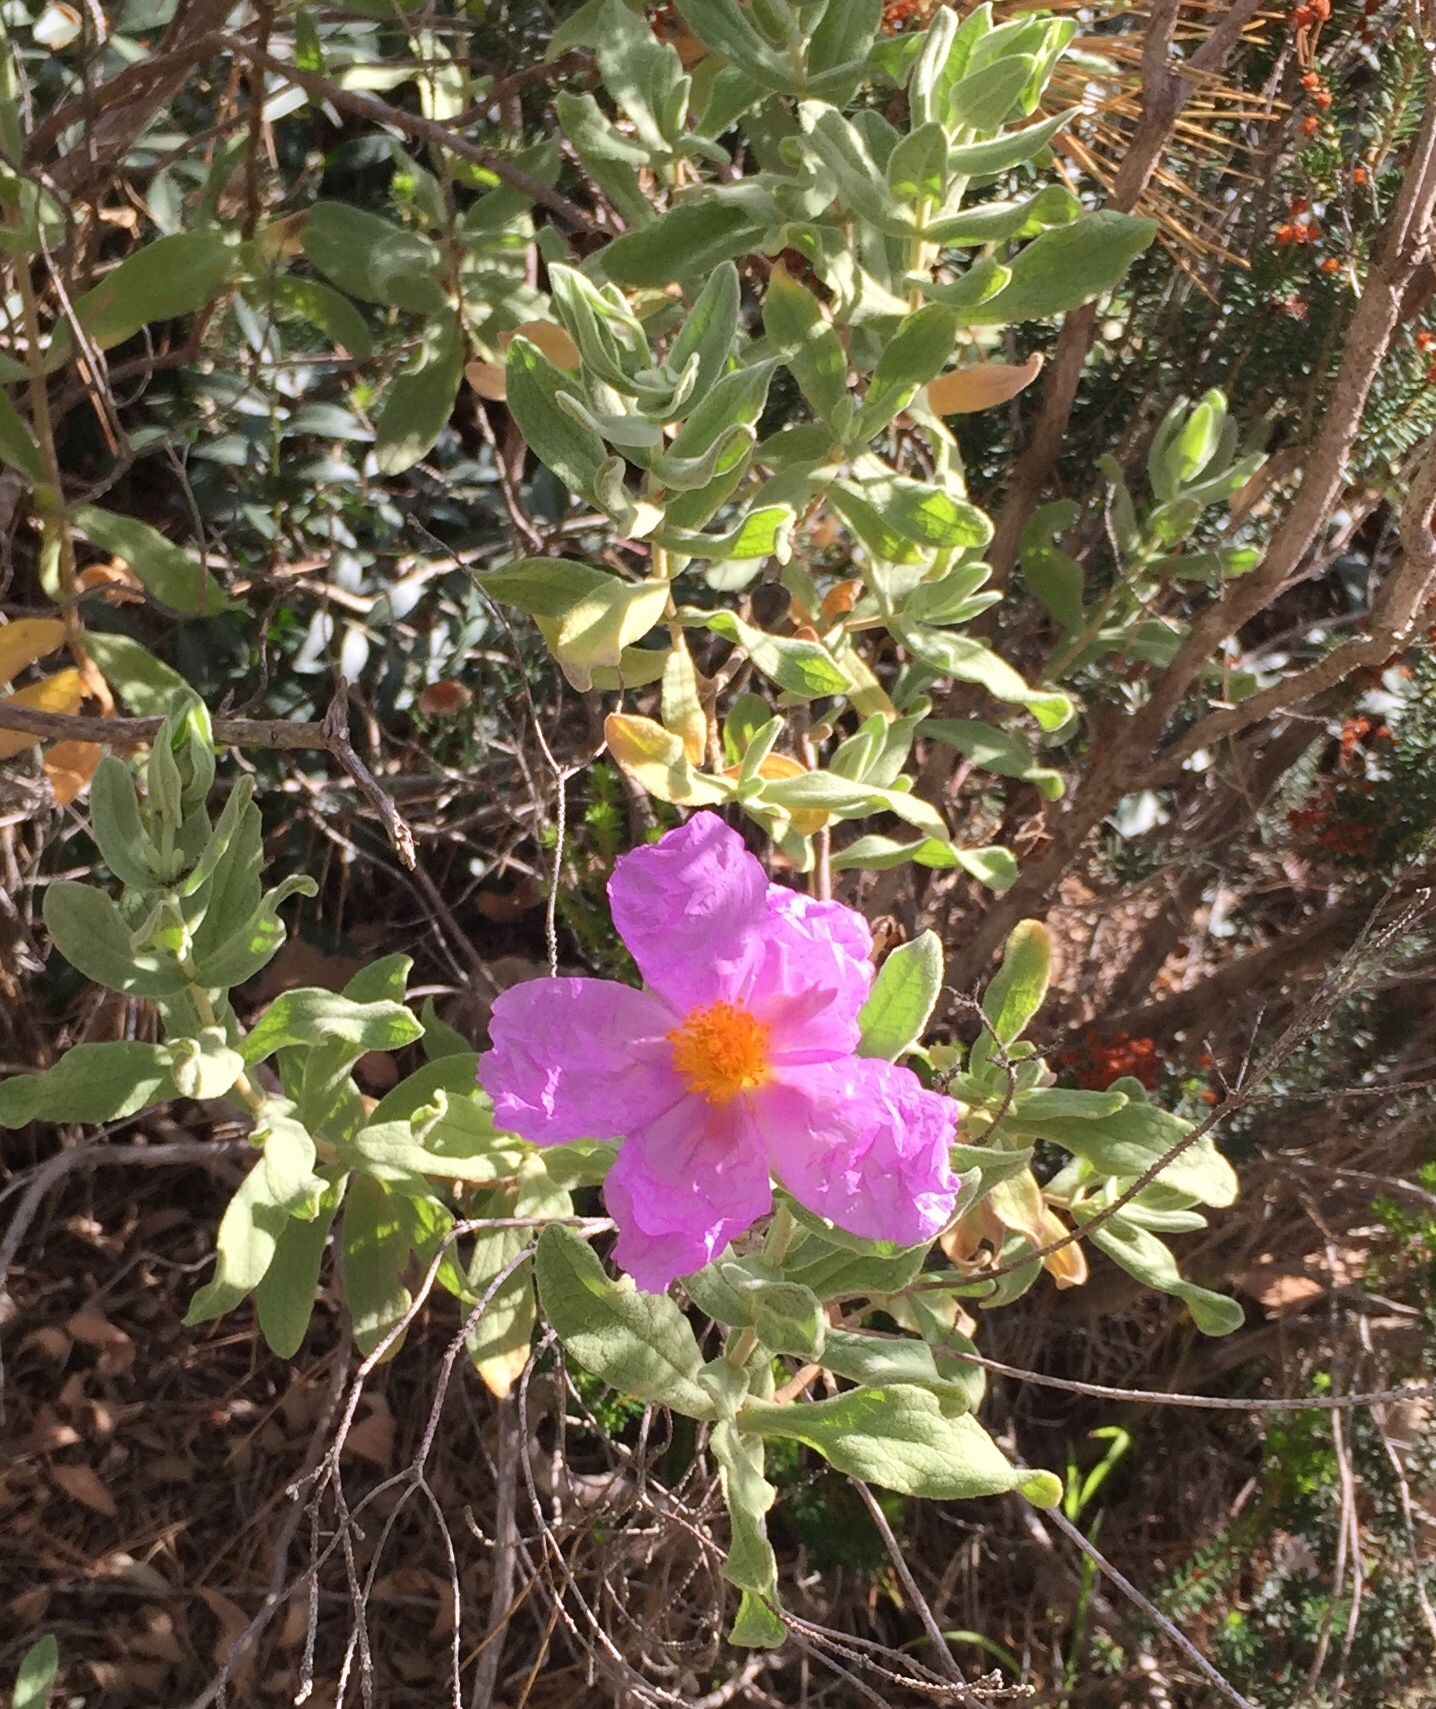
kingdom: Plantae
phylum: Tracheophyta
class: Magnoliopsida
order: Malvales
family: Cistaceae
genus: Cistus
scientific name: Cistus albidus
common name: White-leaf rock-rose
